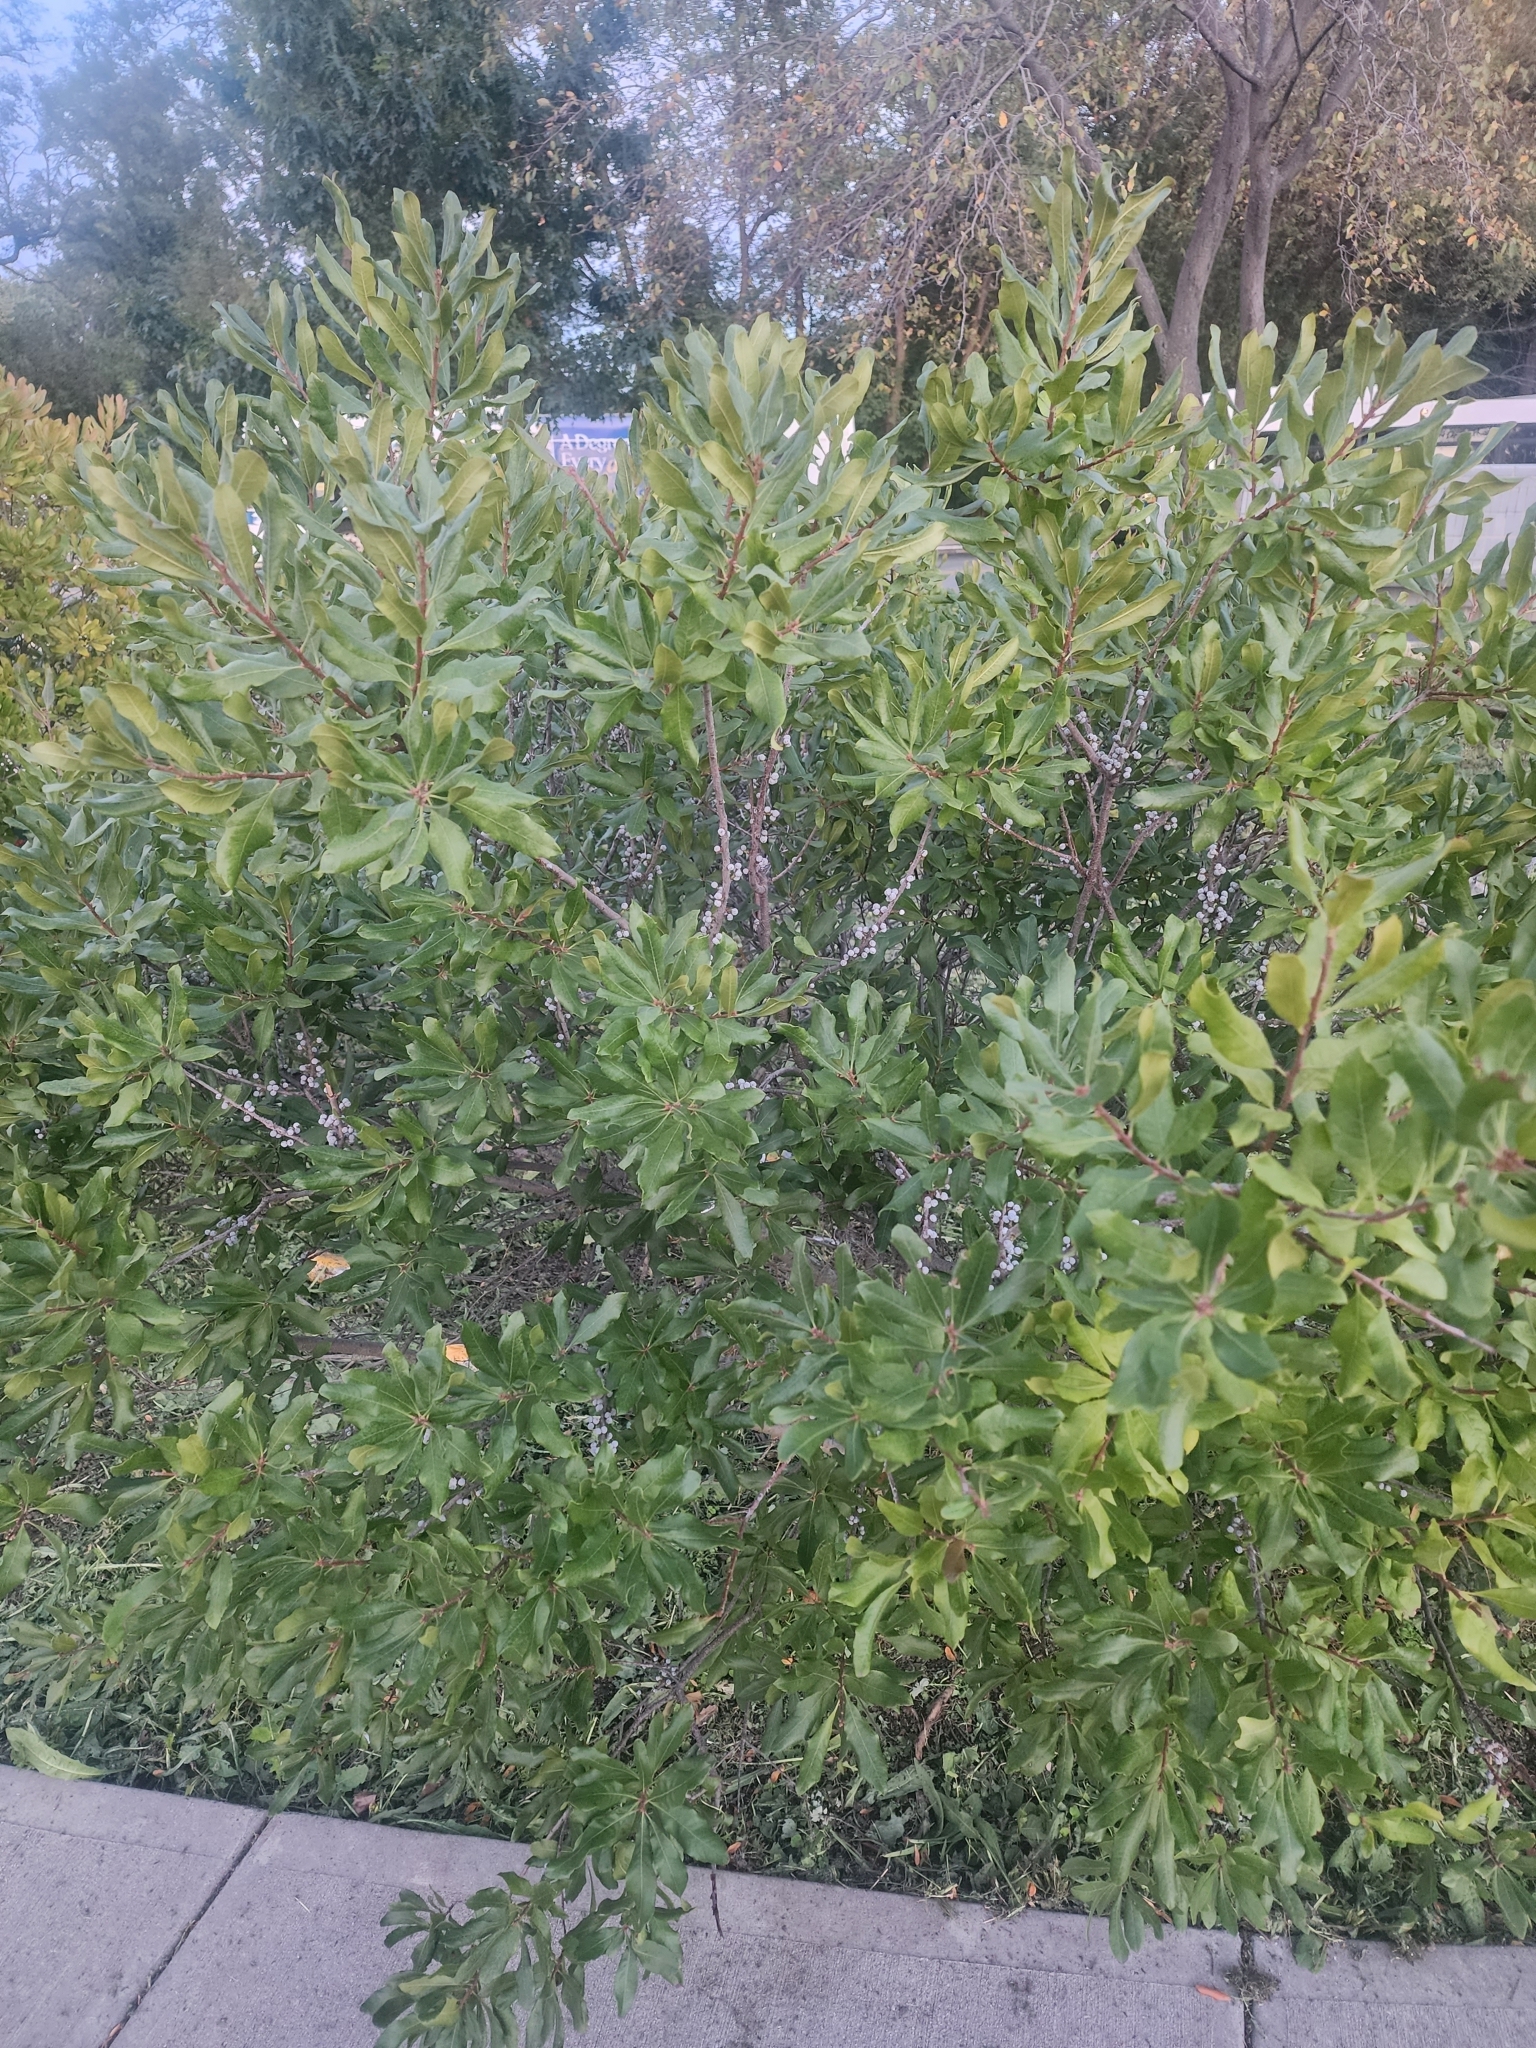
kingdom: Plantae
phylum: Tracheophyta
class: Magnoliopsida
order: Fagales
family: Myricaceae
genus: Morella
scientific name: Morella pensylvanica
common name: Northern bayberry
